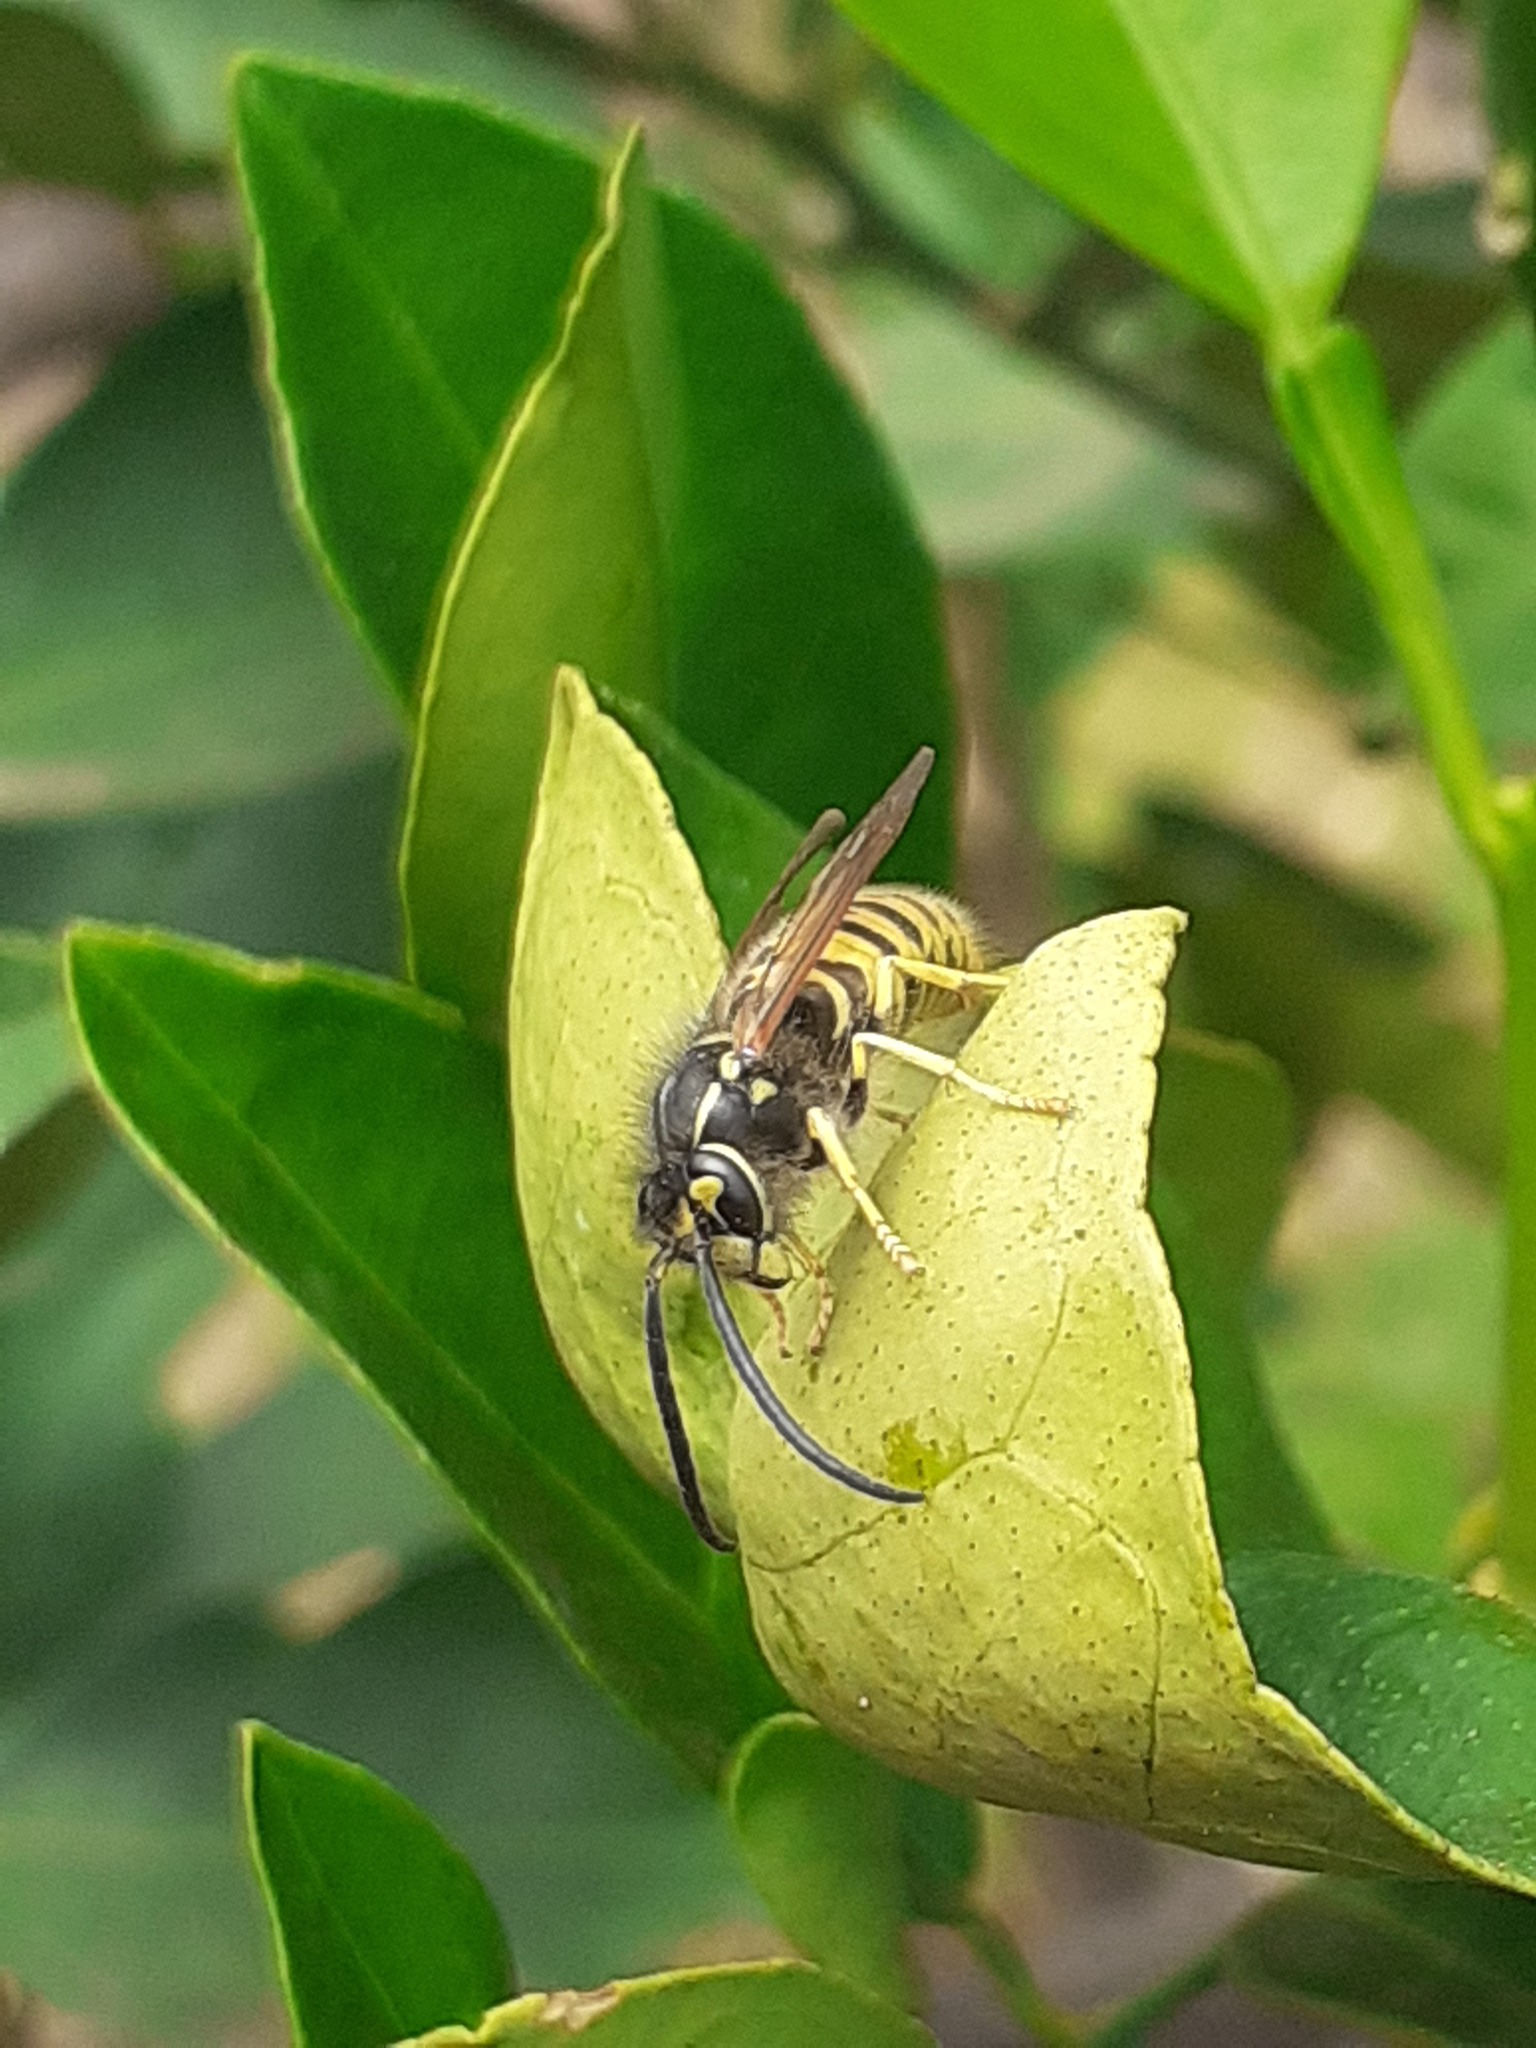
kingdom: Animalia
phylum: Arthropoda
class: Insecta
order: Hymenoptera
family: Vespidae
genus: Vespula
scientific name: Vespula germanica
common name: German wasp
